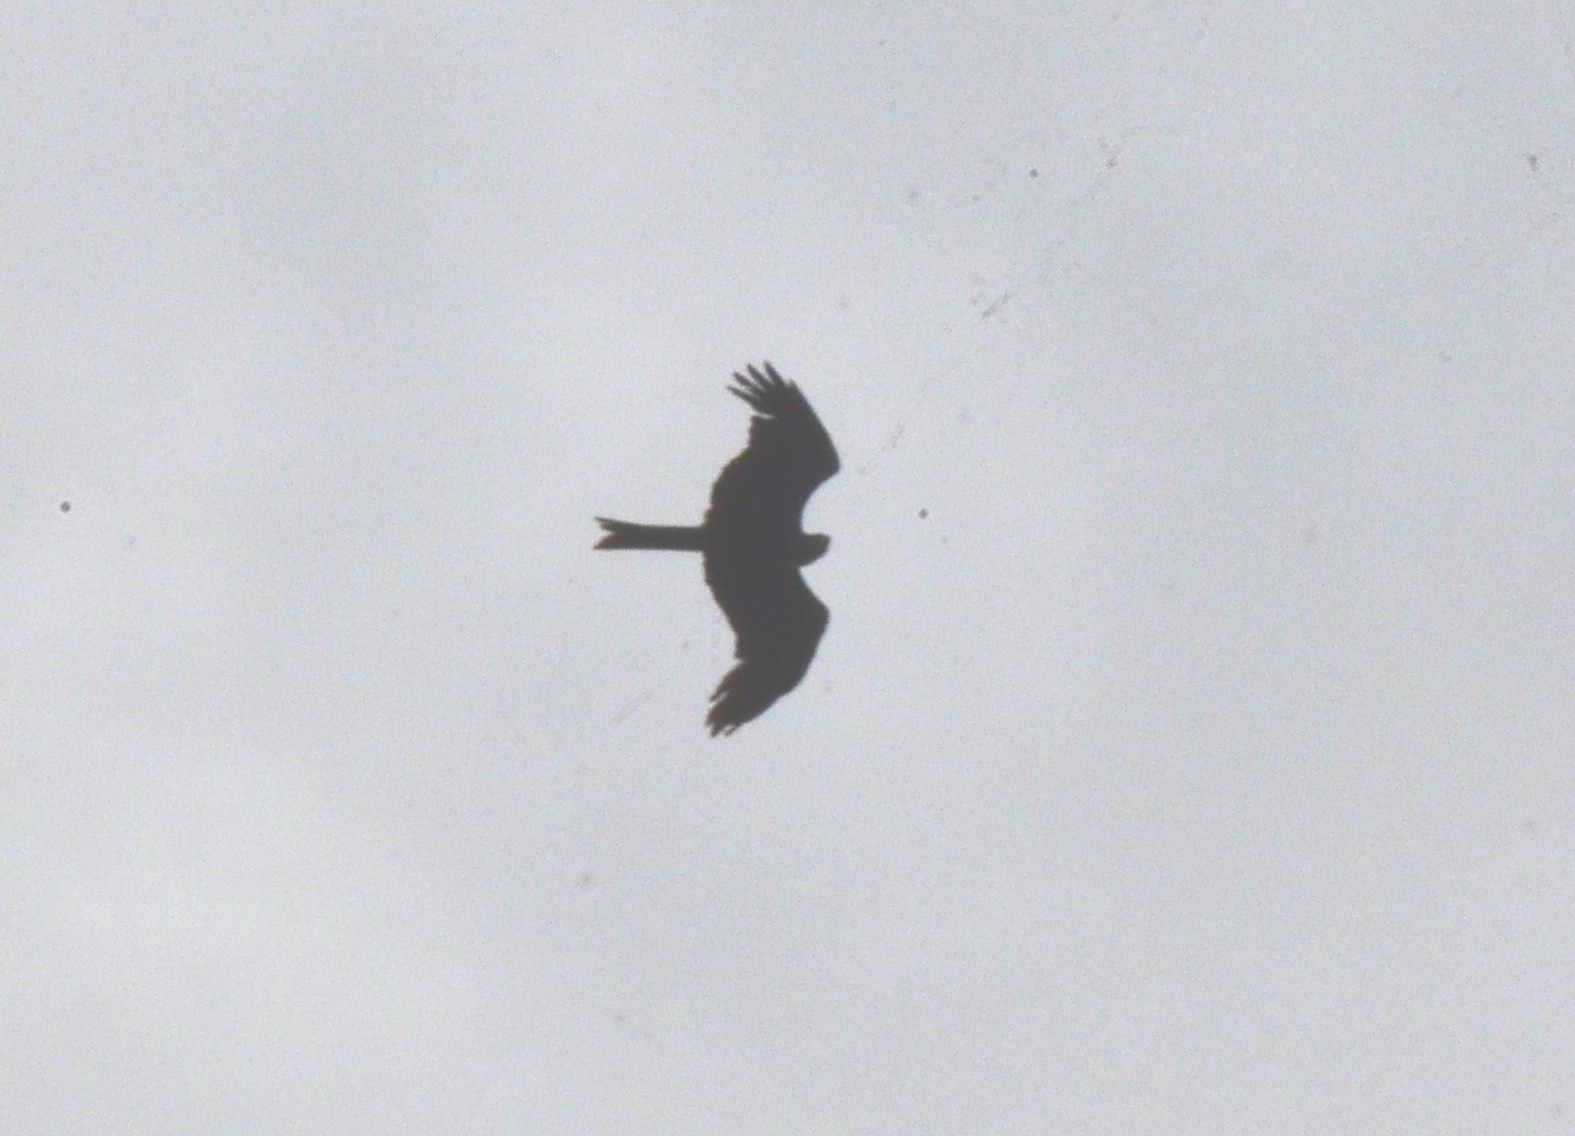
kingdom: Animalia
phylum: Chordata
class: Aves
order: Accipitriformes
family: Accipitridae
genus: Milvus
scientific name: Milvus migrans
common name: Black kite
